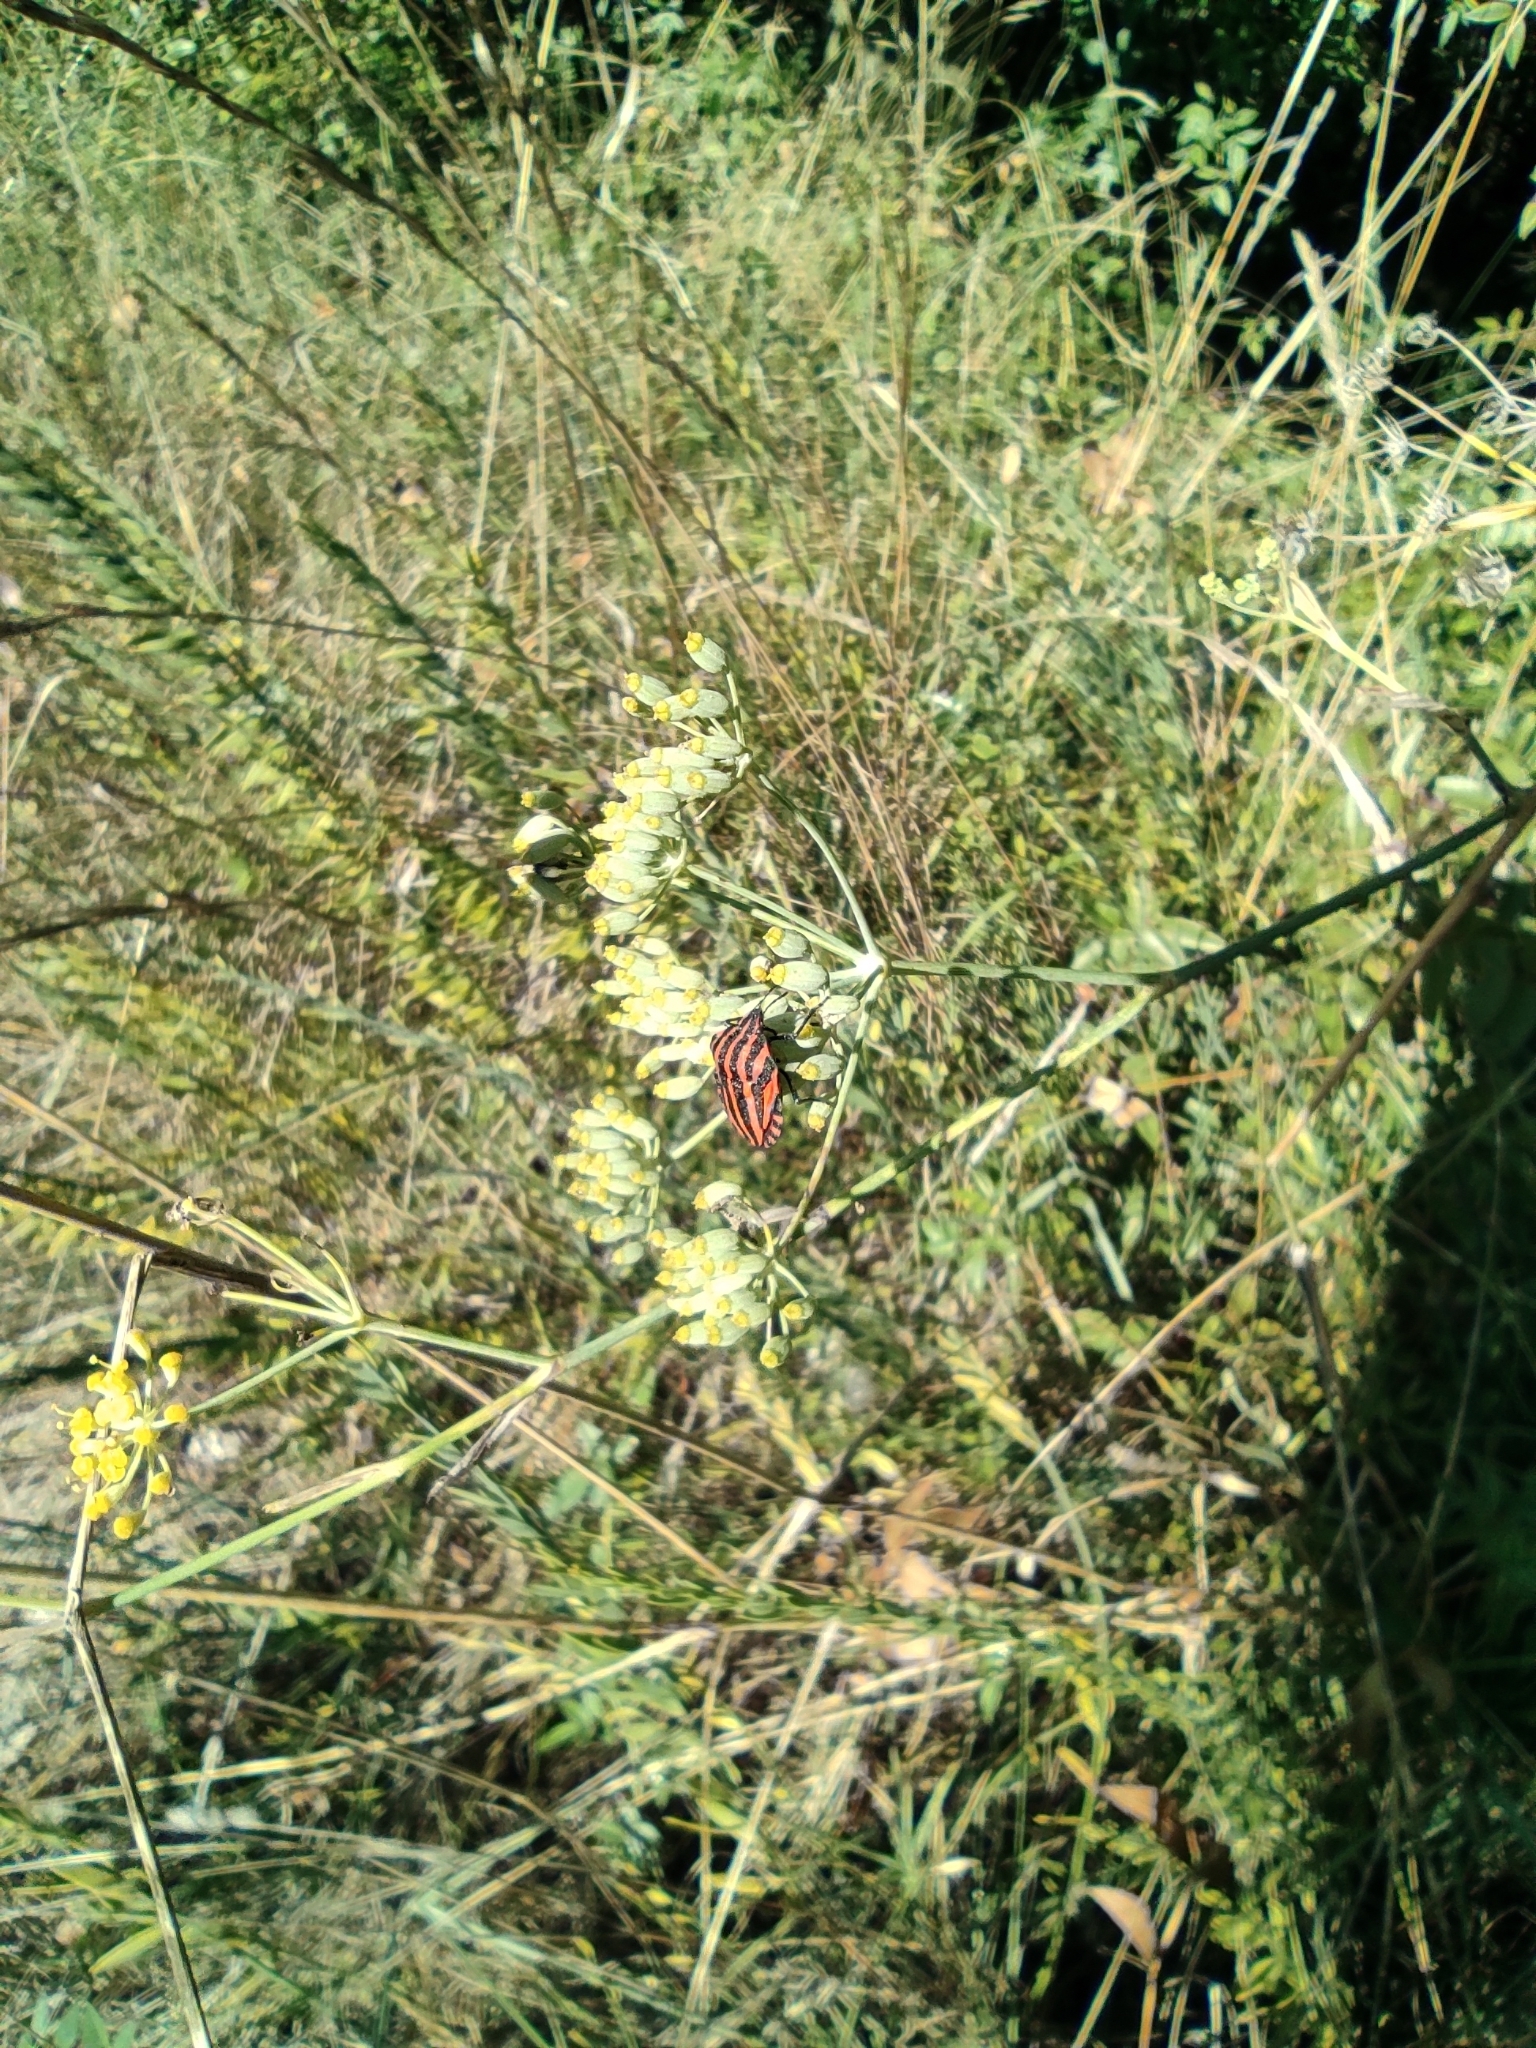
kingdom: Animalia
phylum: Arthropoda
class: Insecta
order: Hemiptera
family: Pentatomidae
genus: Graphosoma
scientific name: Graphosoma italicum
